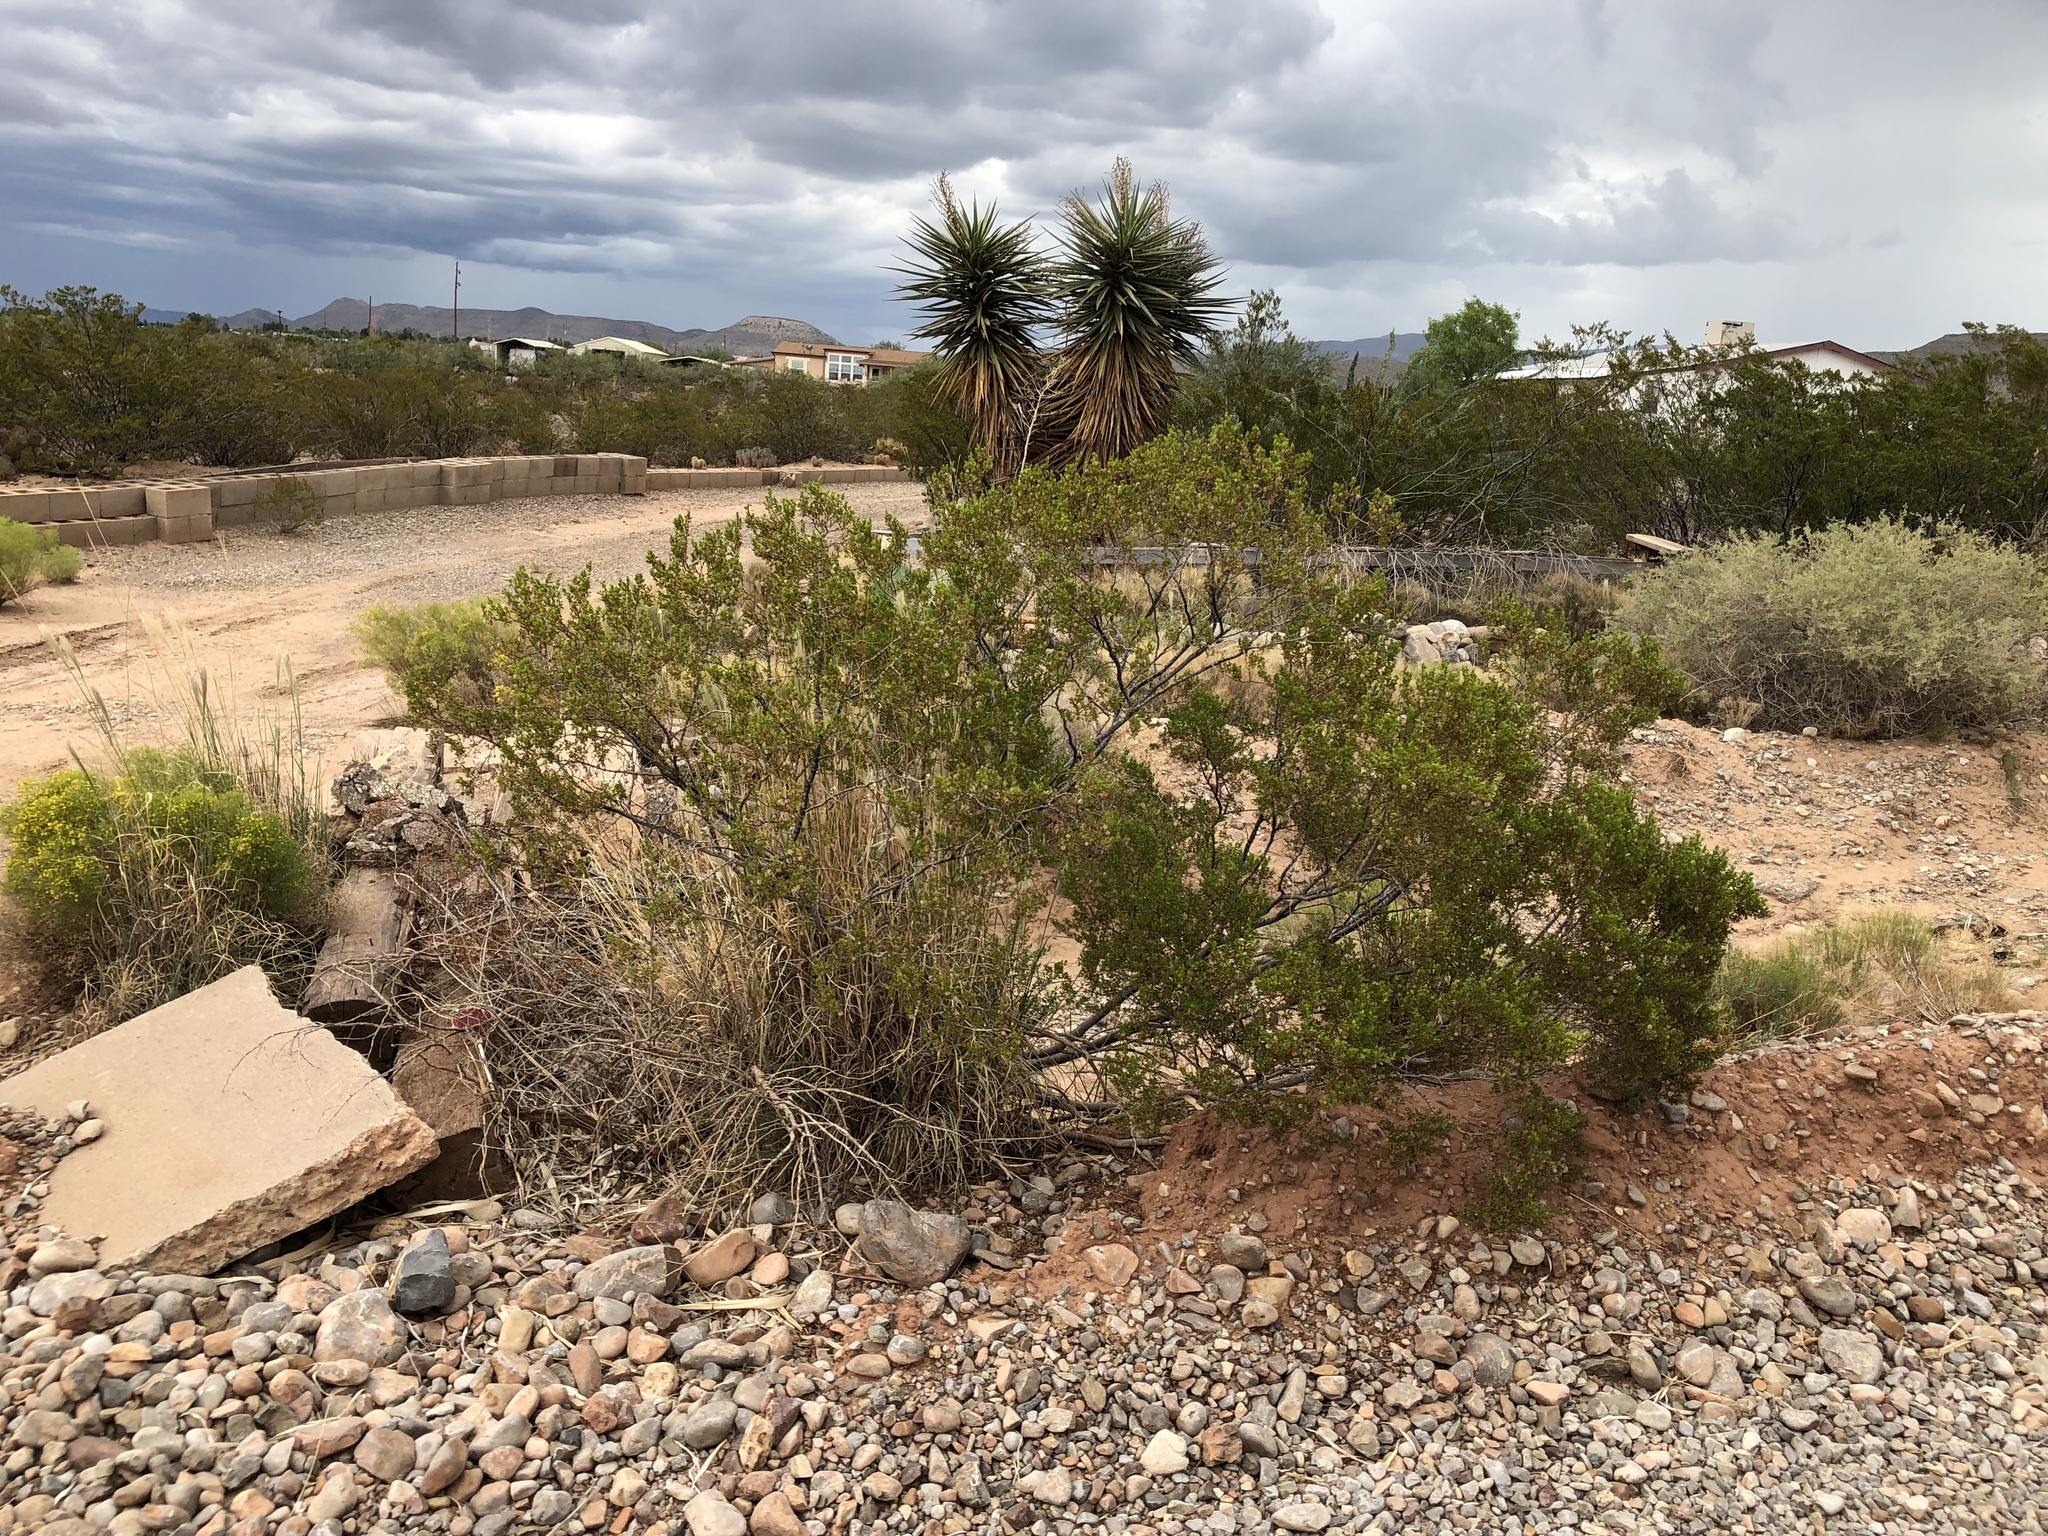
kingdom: Plantae
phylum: Tracheophyta
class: Magnoliopsida
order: Zygophyllales
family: Zygophyllaceae
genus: Larrea
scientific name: Larrea tridentata
